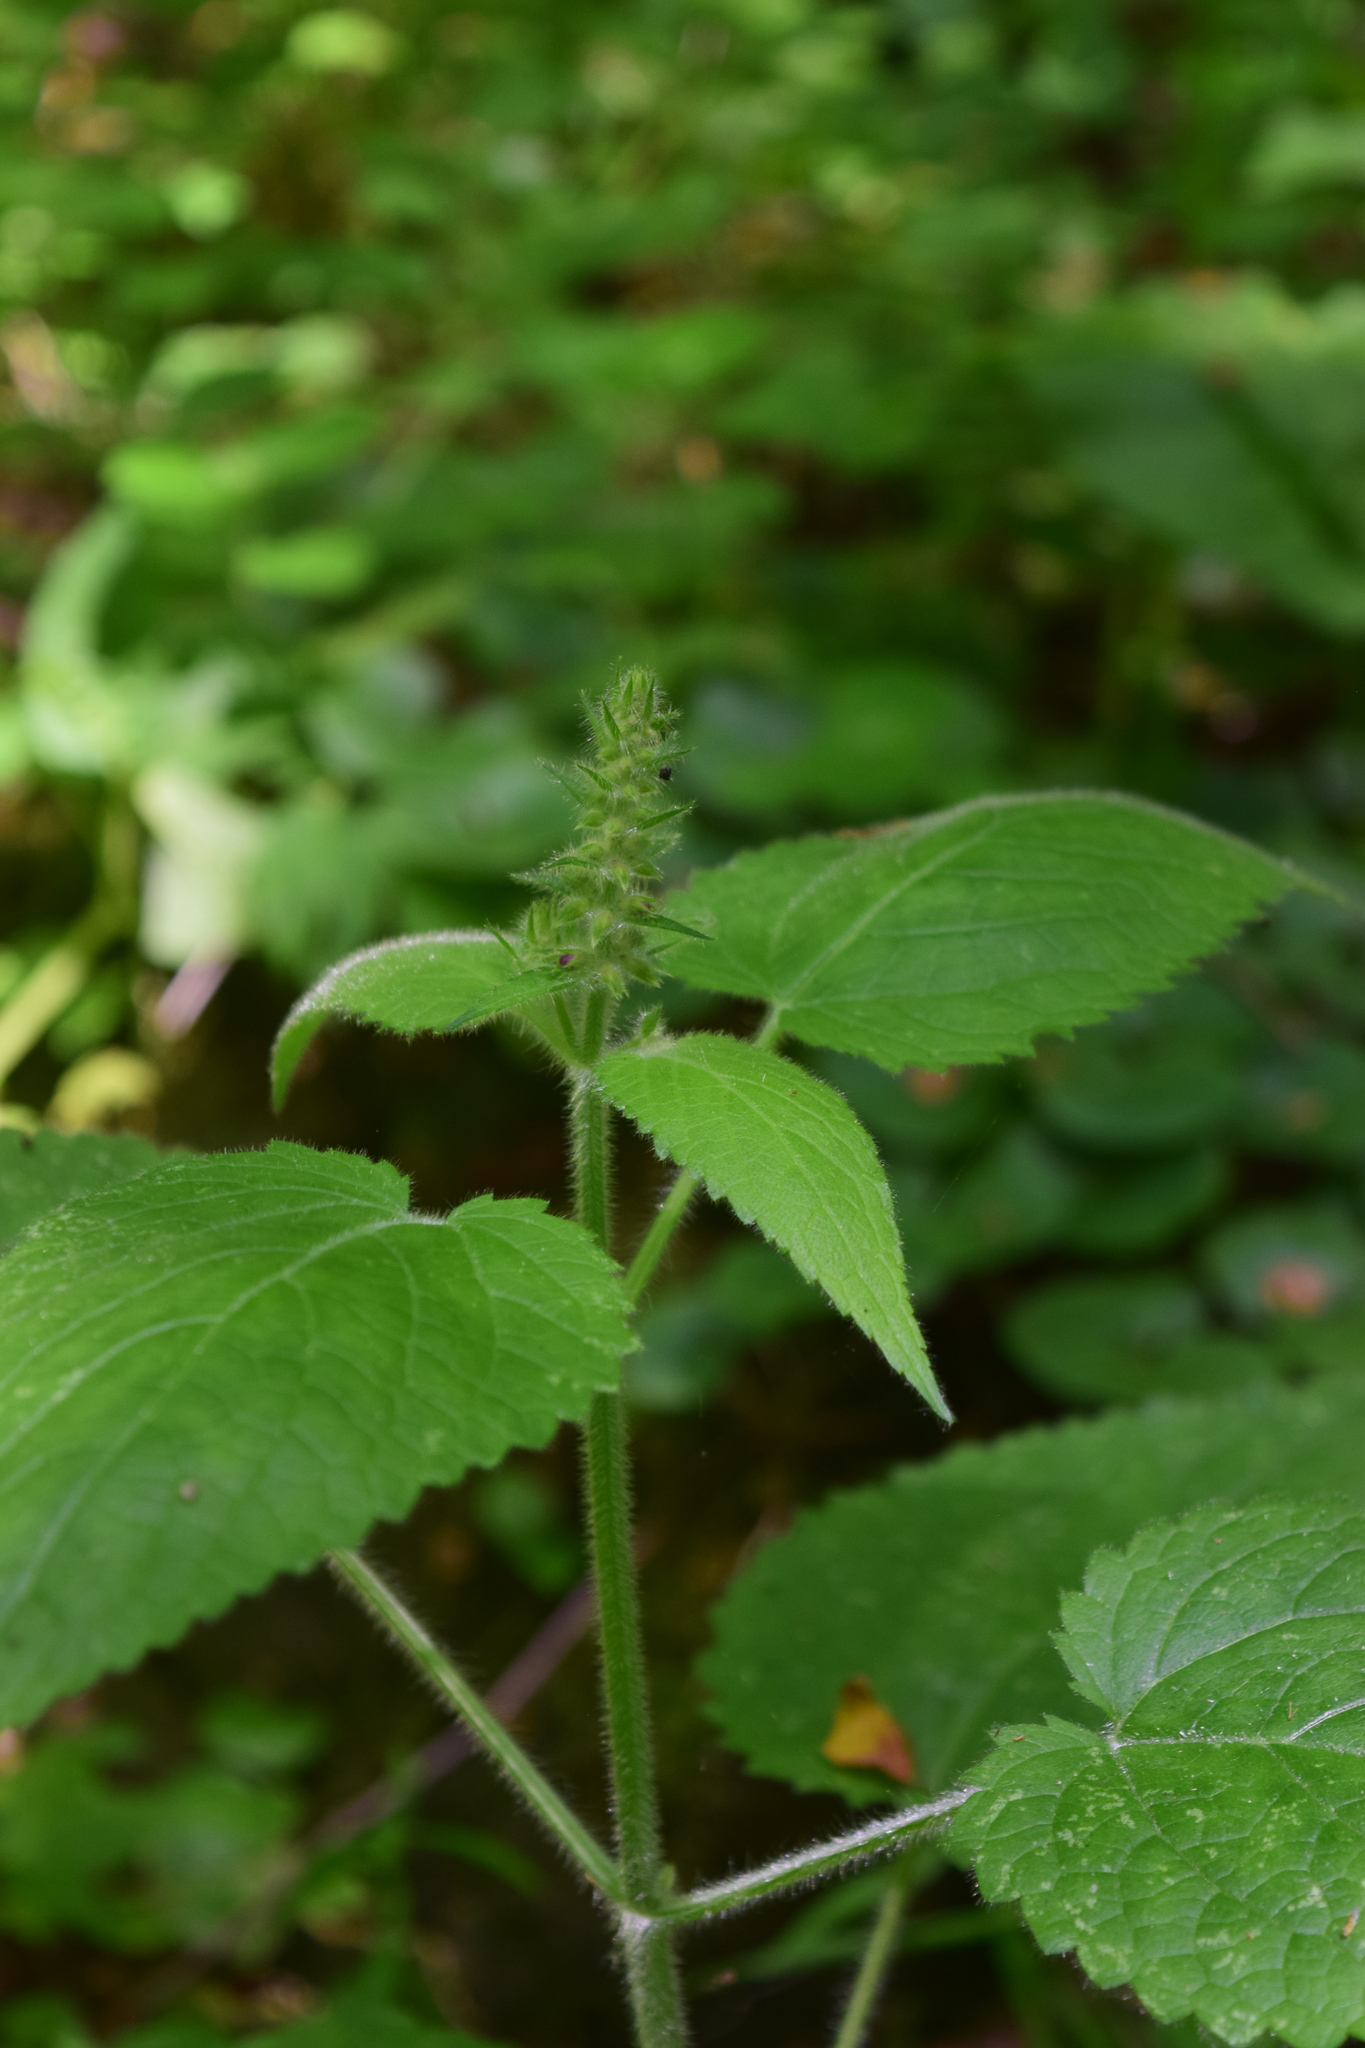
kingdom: Plantae
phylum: Tracheophyta
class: Magnoliopsida
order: Lamiales
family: Lamiaceae
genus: Stachys
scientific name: Stachys sylvatica
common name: Hedge woundwort
